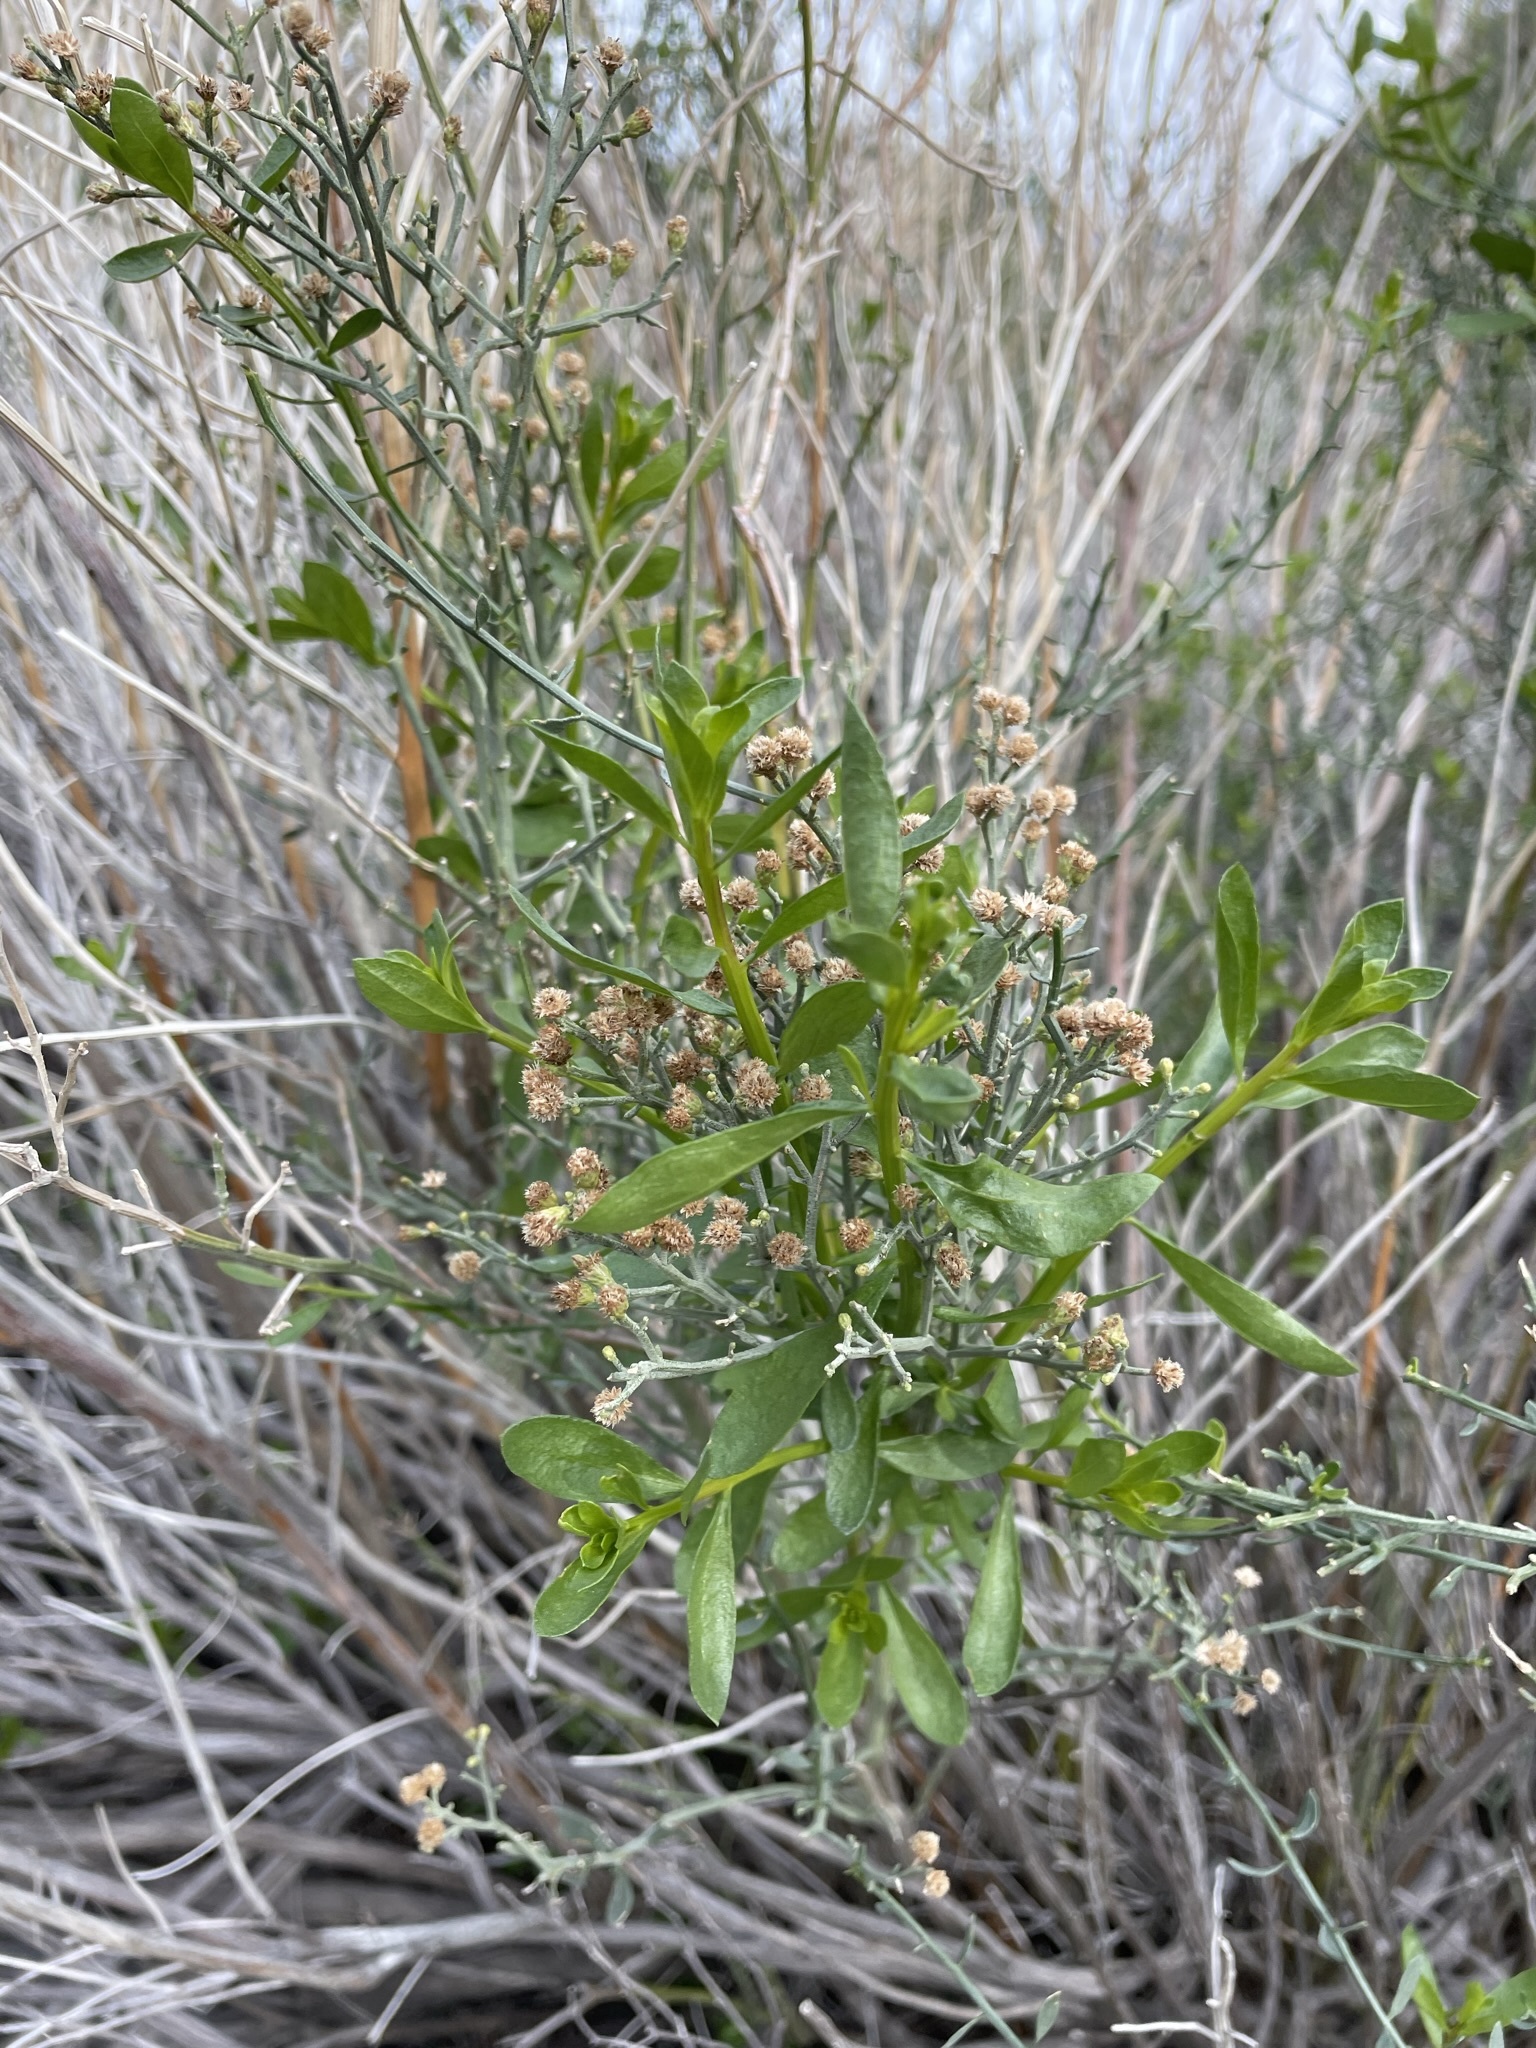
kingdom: Plantae
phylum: Tracheophyta
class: Magnoliopsida
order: Asterales
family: Asteraceae
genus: Baccharis
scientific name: Baccharis sergiloides
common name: Desert baccharis
